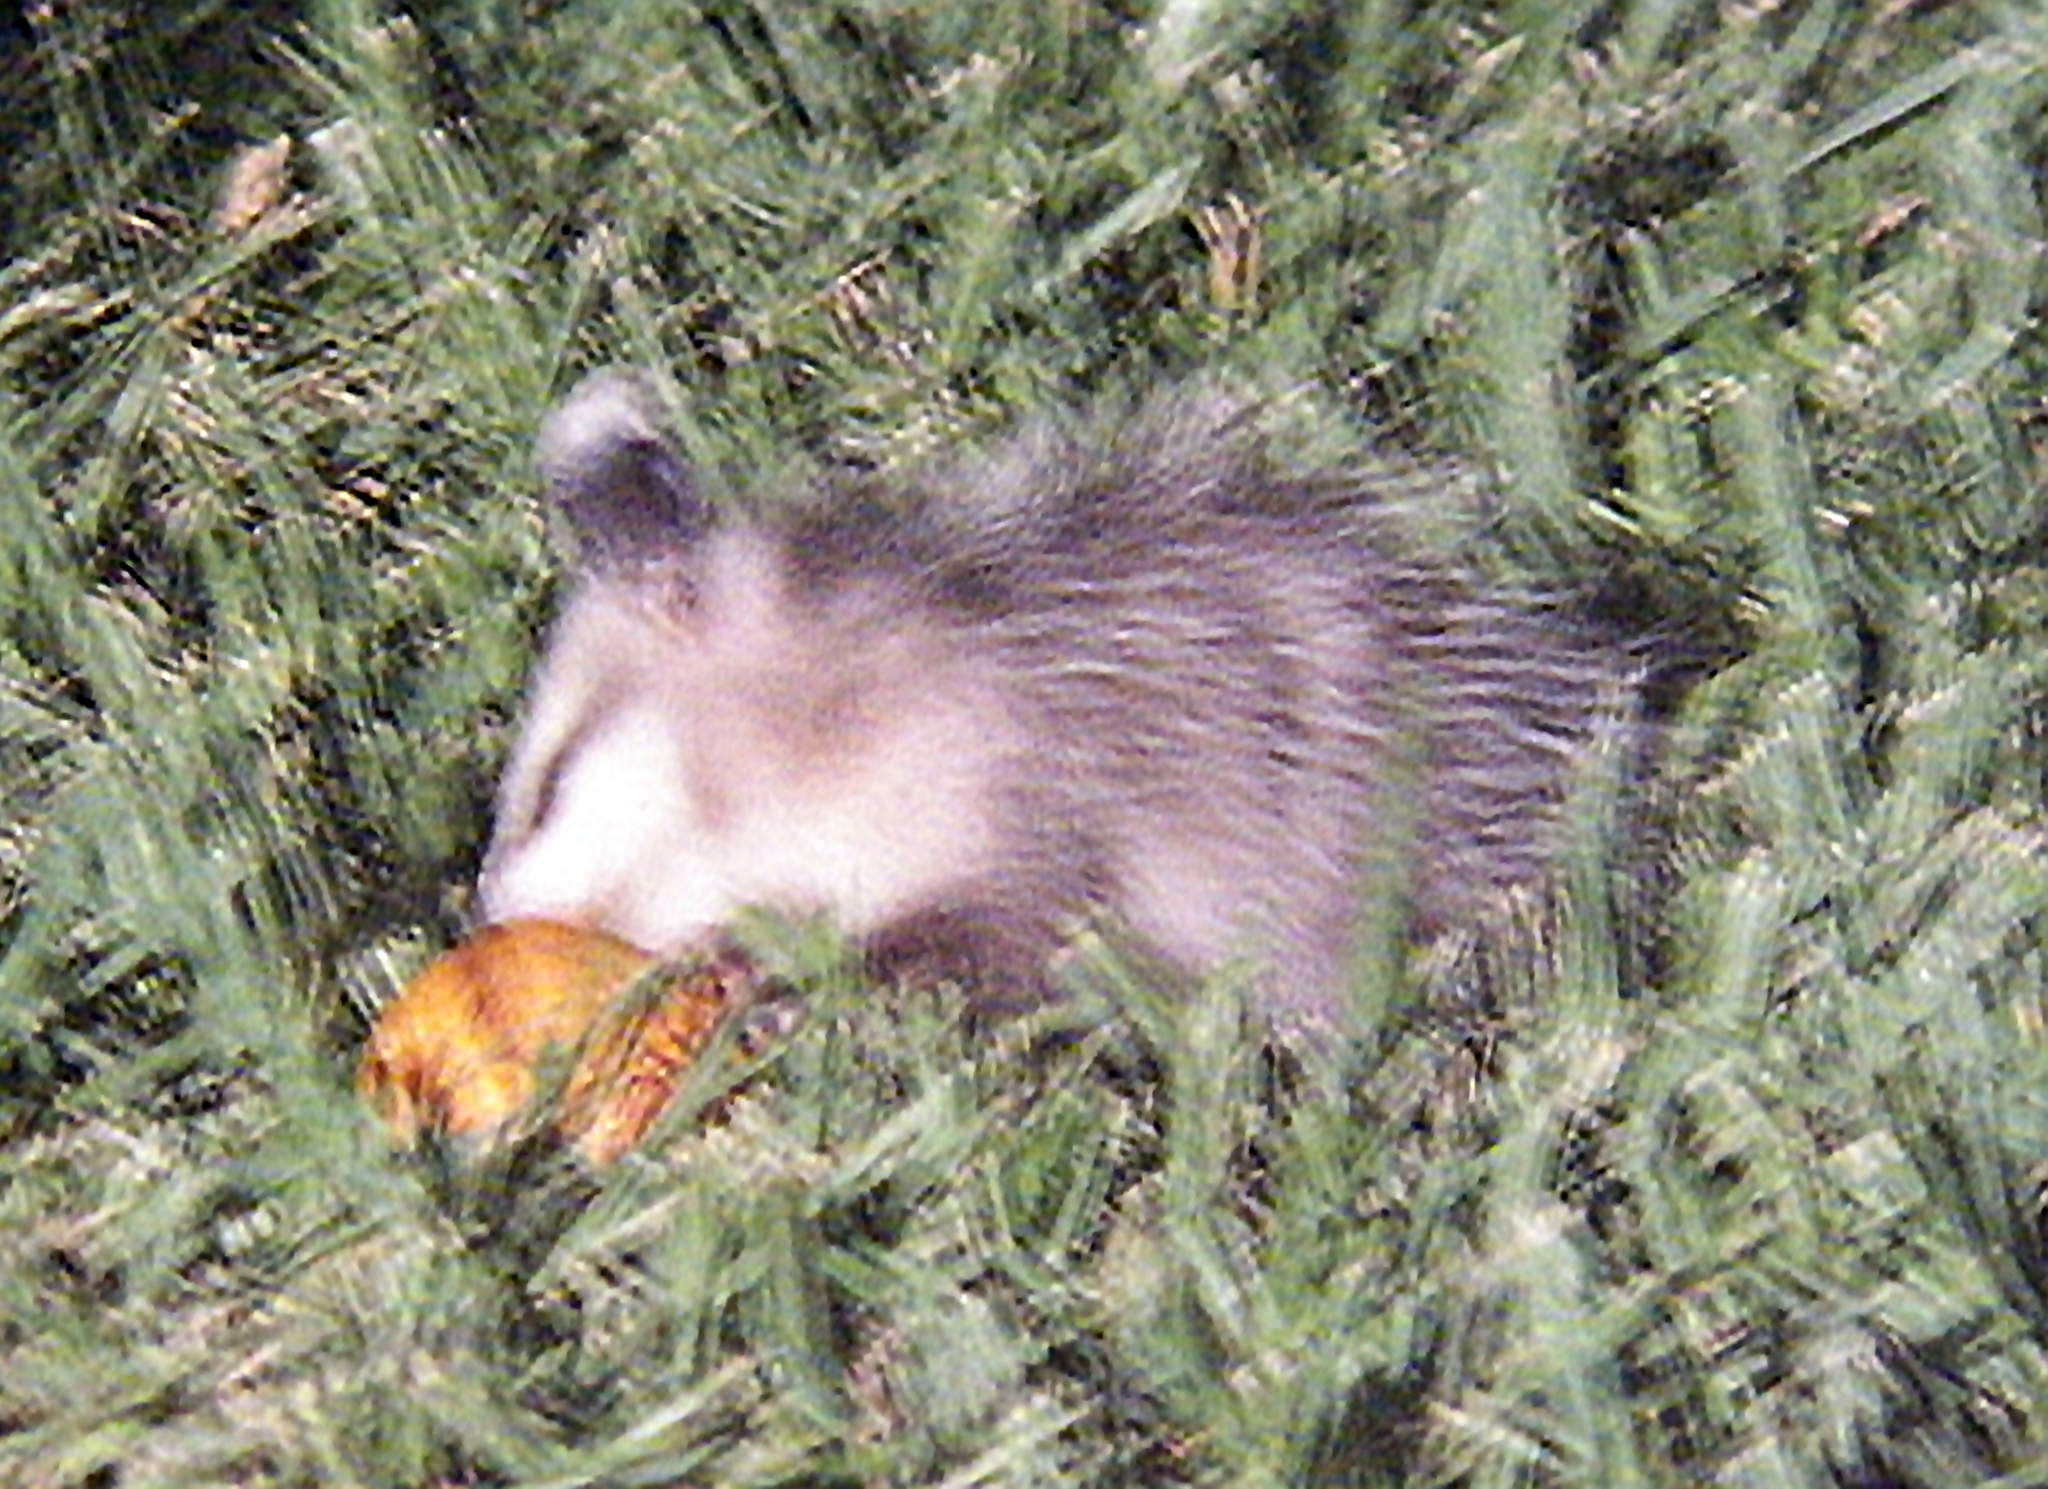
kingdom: Animalia
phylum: Chordata
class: Mammalia
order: Didelphimorphia
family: Didelphidae
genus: Didelphis
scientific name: Didelphis virginiana
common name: Virginia opossum
